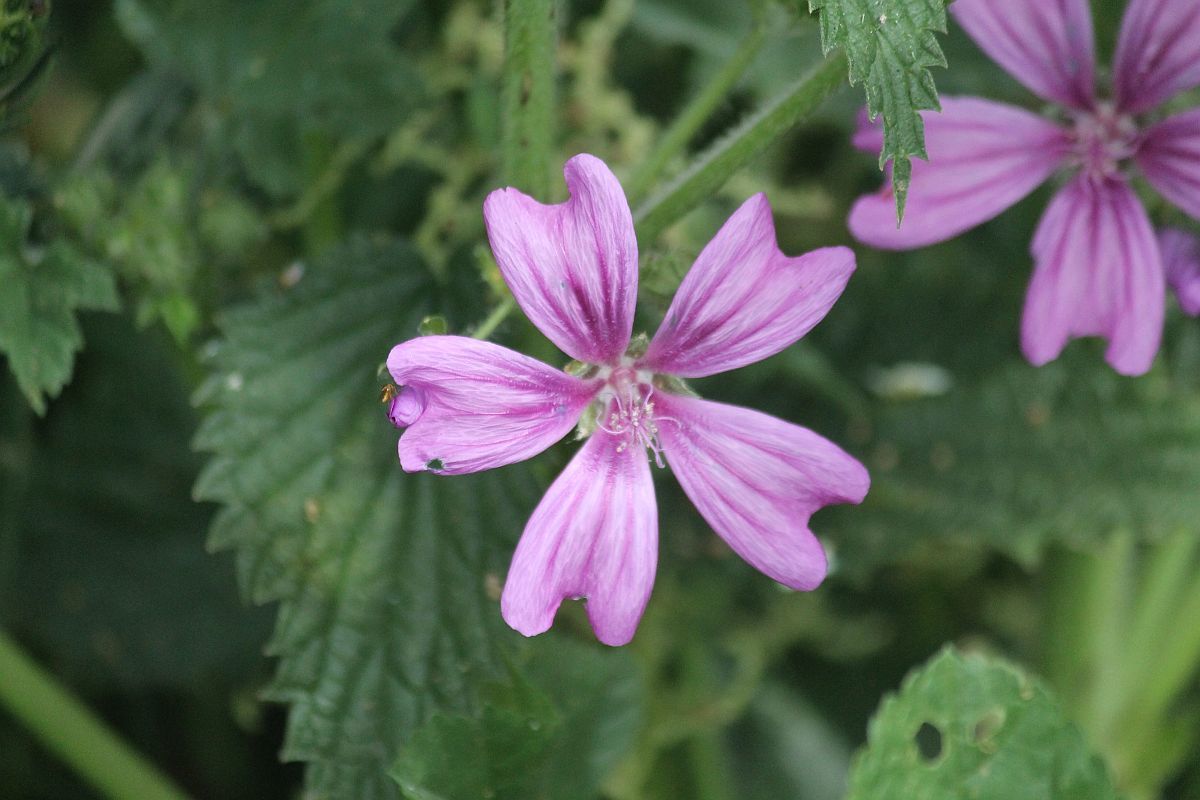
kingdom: Plantae
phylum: Tracheophyta
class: Magnoliopsida
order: Malvales
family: Malvaceae
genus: Malva
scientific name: Malva sylvestris
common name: Common mallow
